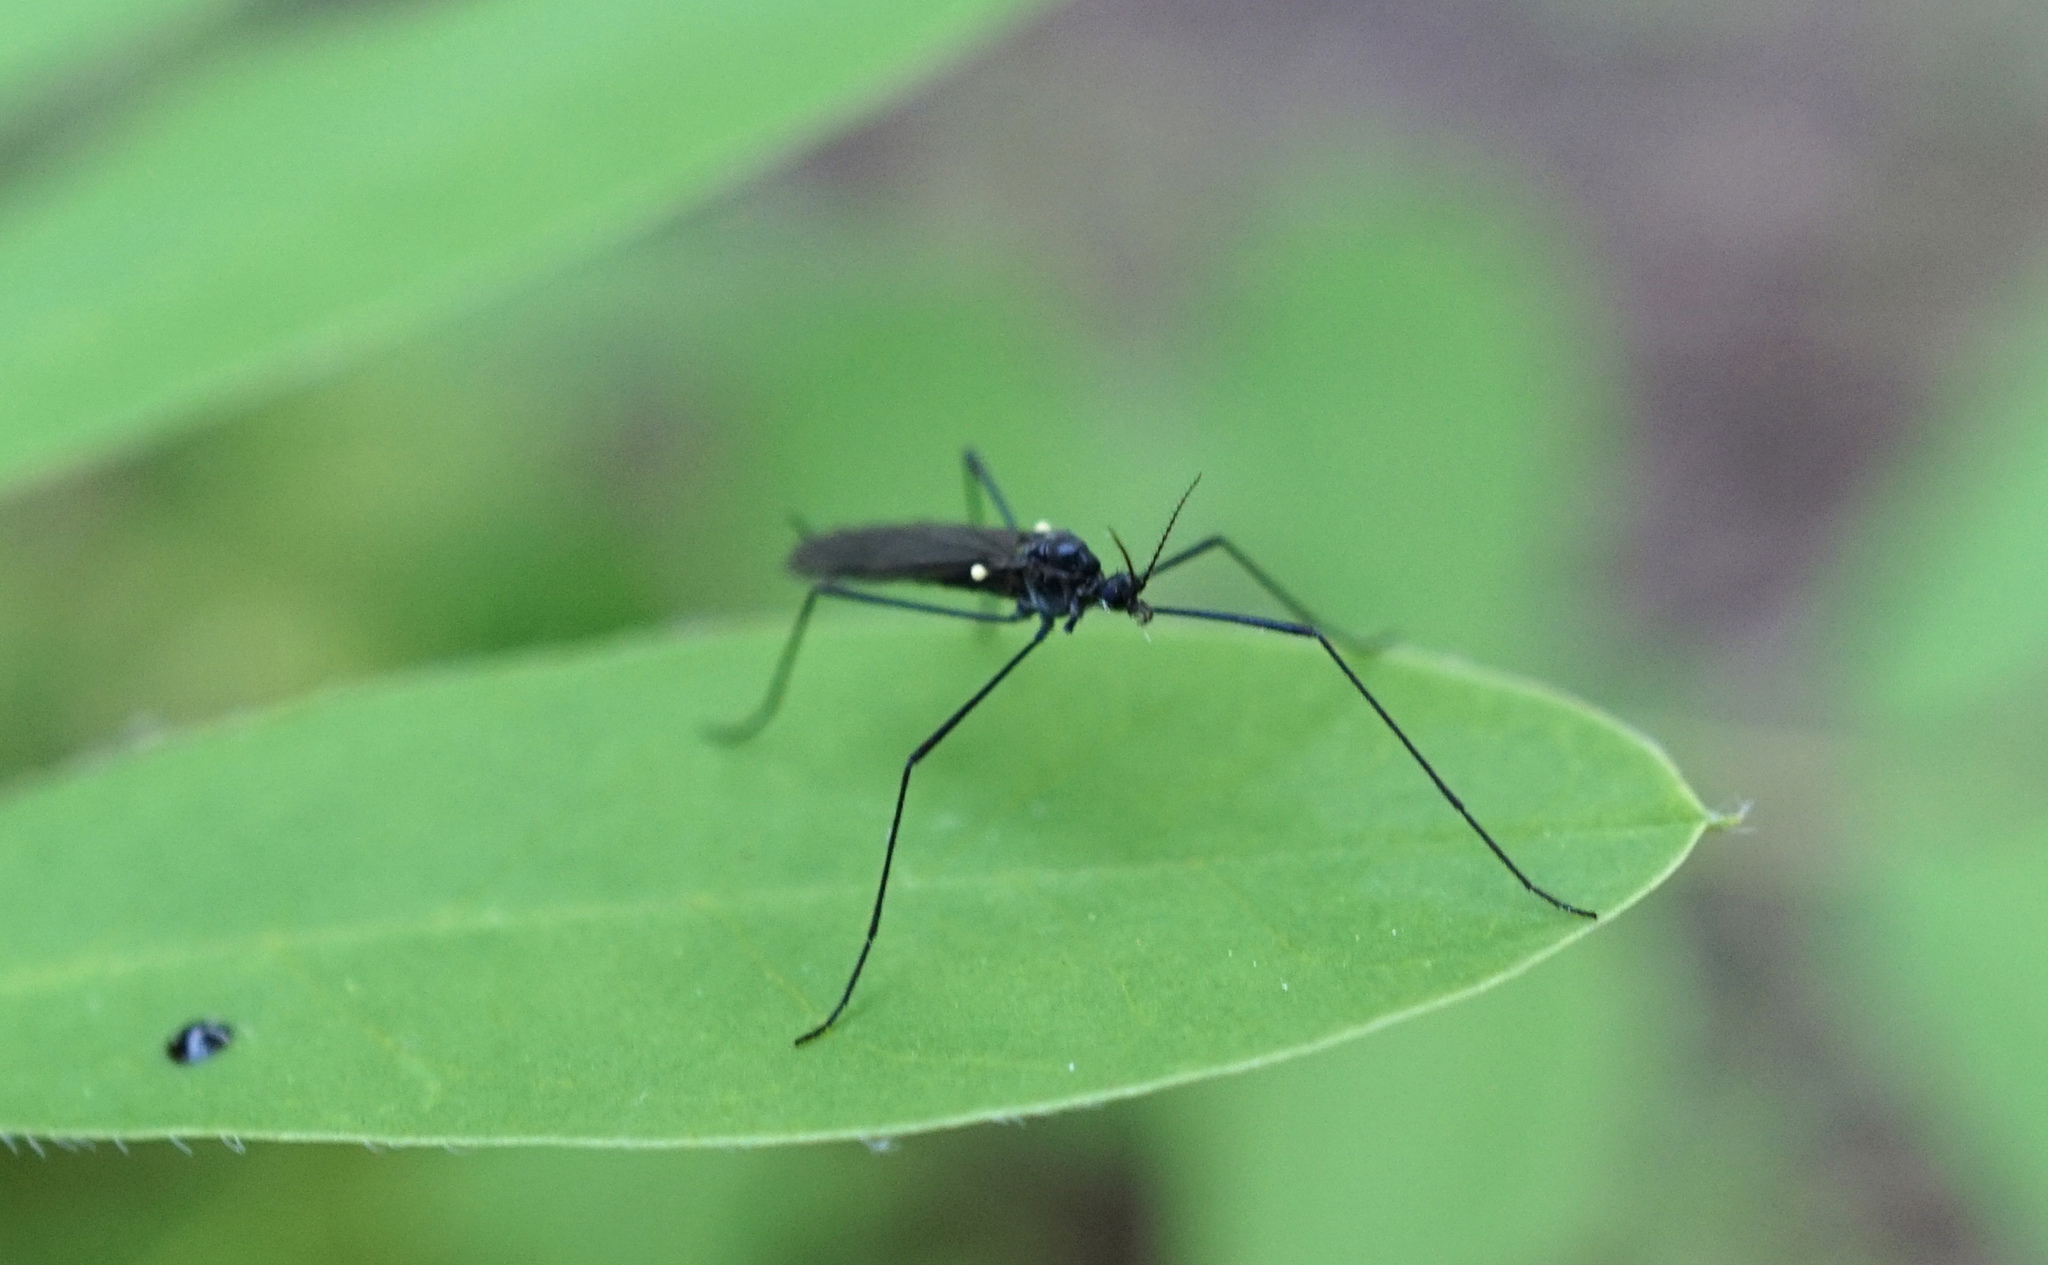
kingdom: Animalia
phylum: Arthropoda
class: Insecta
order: Diptera
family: Limoniidae
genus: Gnophomyia
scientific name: Gnophomyia tristissima
